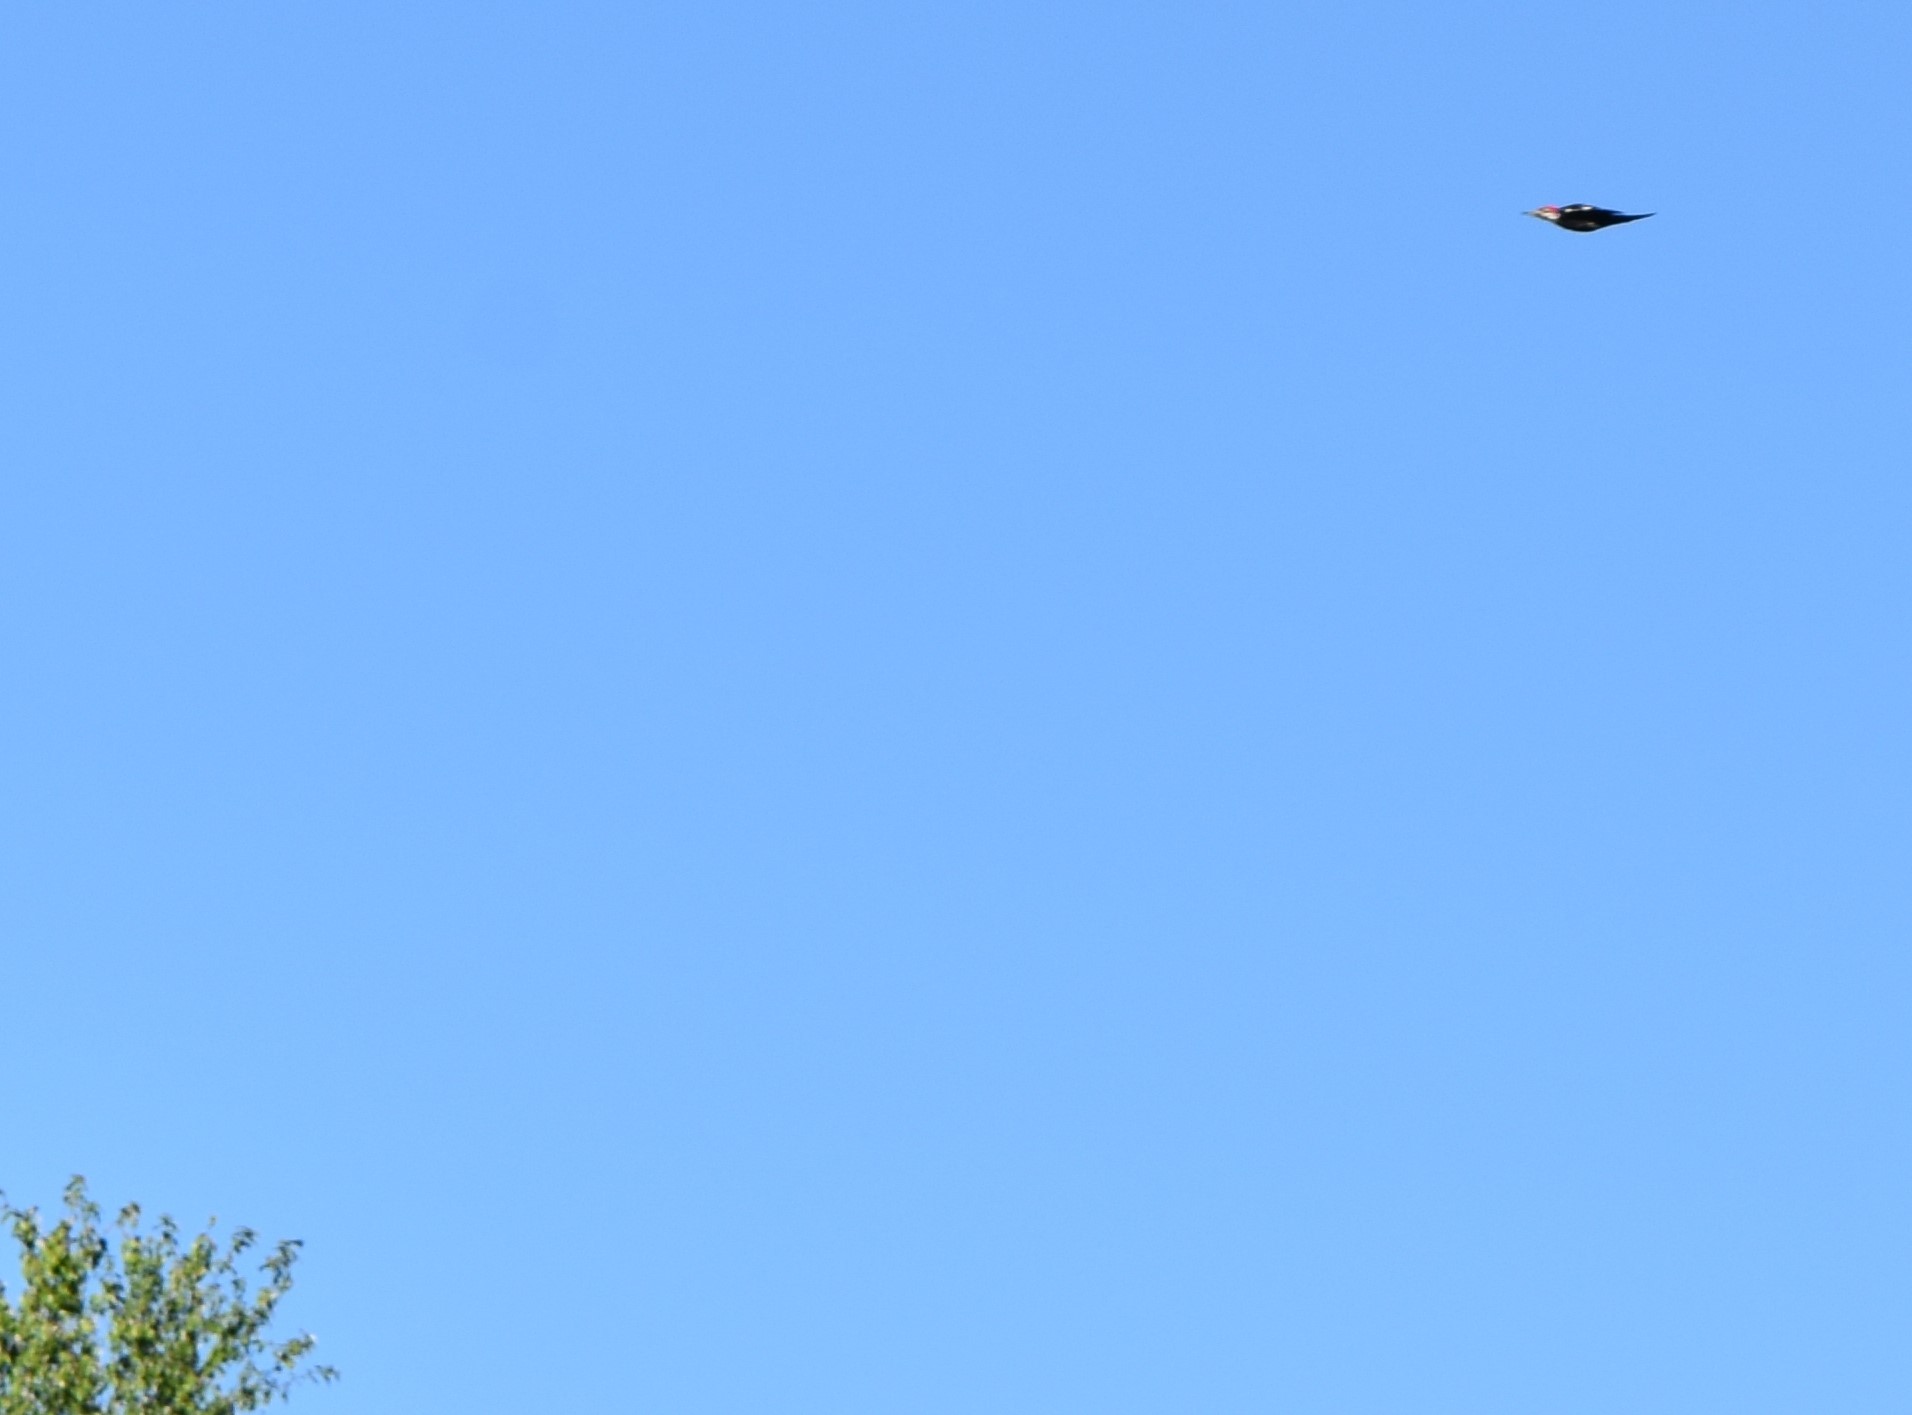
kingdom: Animalia
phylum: Chordata
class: Aves
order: Piciformes
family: Picidae
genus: Dryocopus
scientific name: Dryocopus pileatus
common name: Pileated woodpecker
